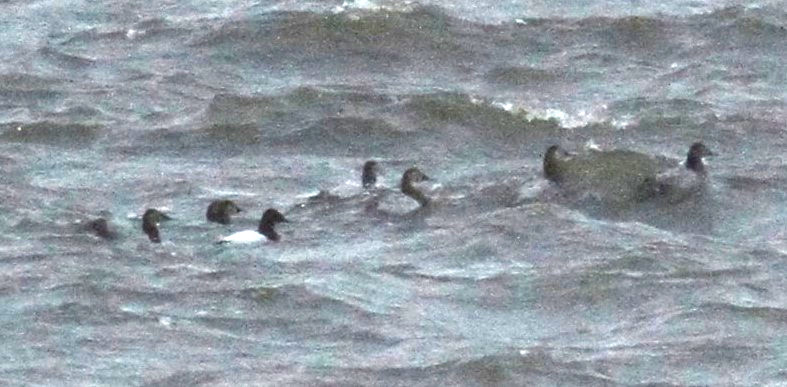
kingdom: Animalia
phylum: Chordata
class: Aves
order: Anseriformes
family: Anatidae
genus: Aythya
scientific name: Aythya valisineria
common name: Canvasback
